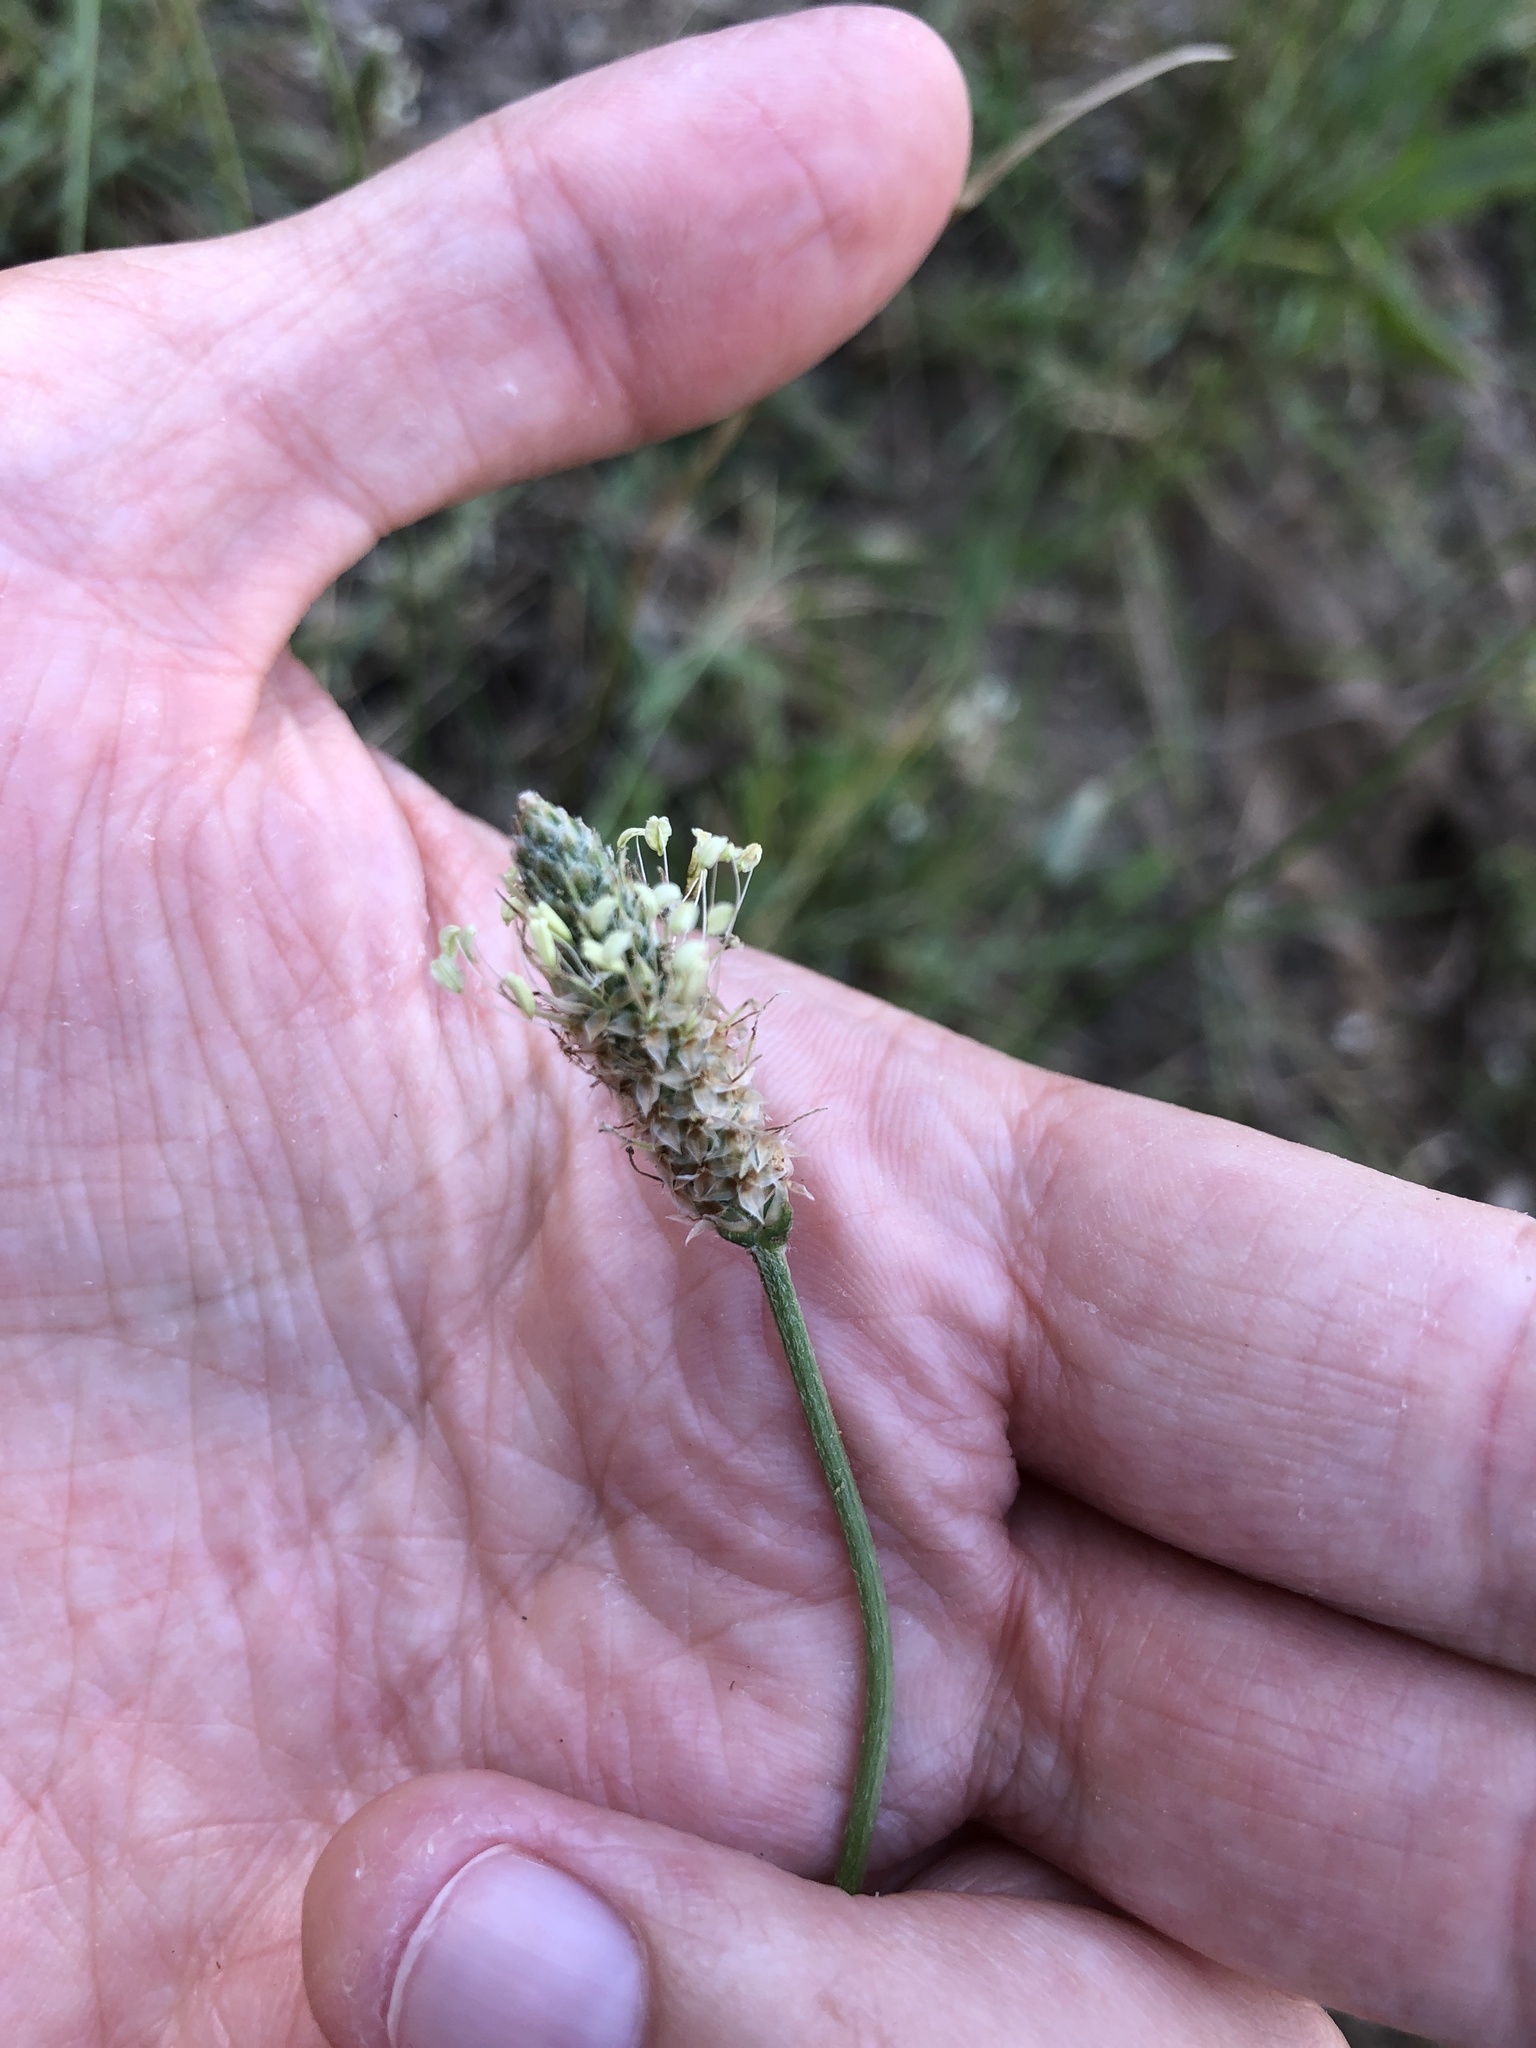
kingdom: Plantae
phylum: Tracheophyta
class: Magnoliopsida
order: Lamiales
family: Plantaginaceae
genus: Plantago
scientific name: Plantago lanceolata
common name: Ribwort plantain
